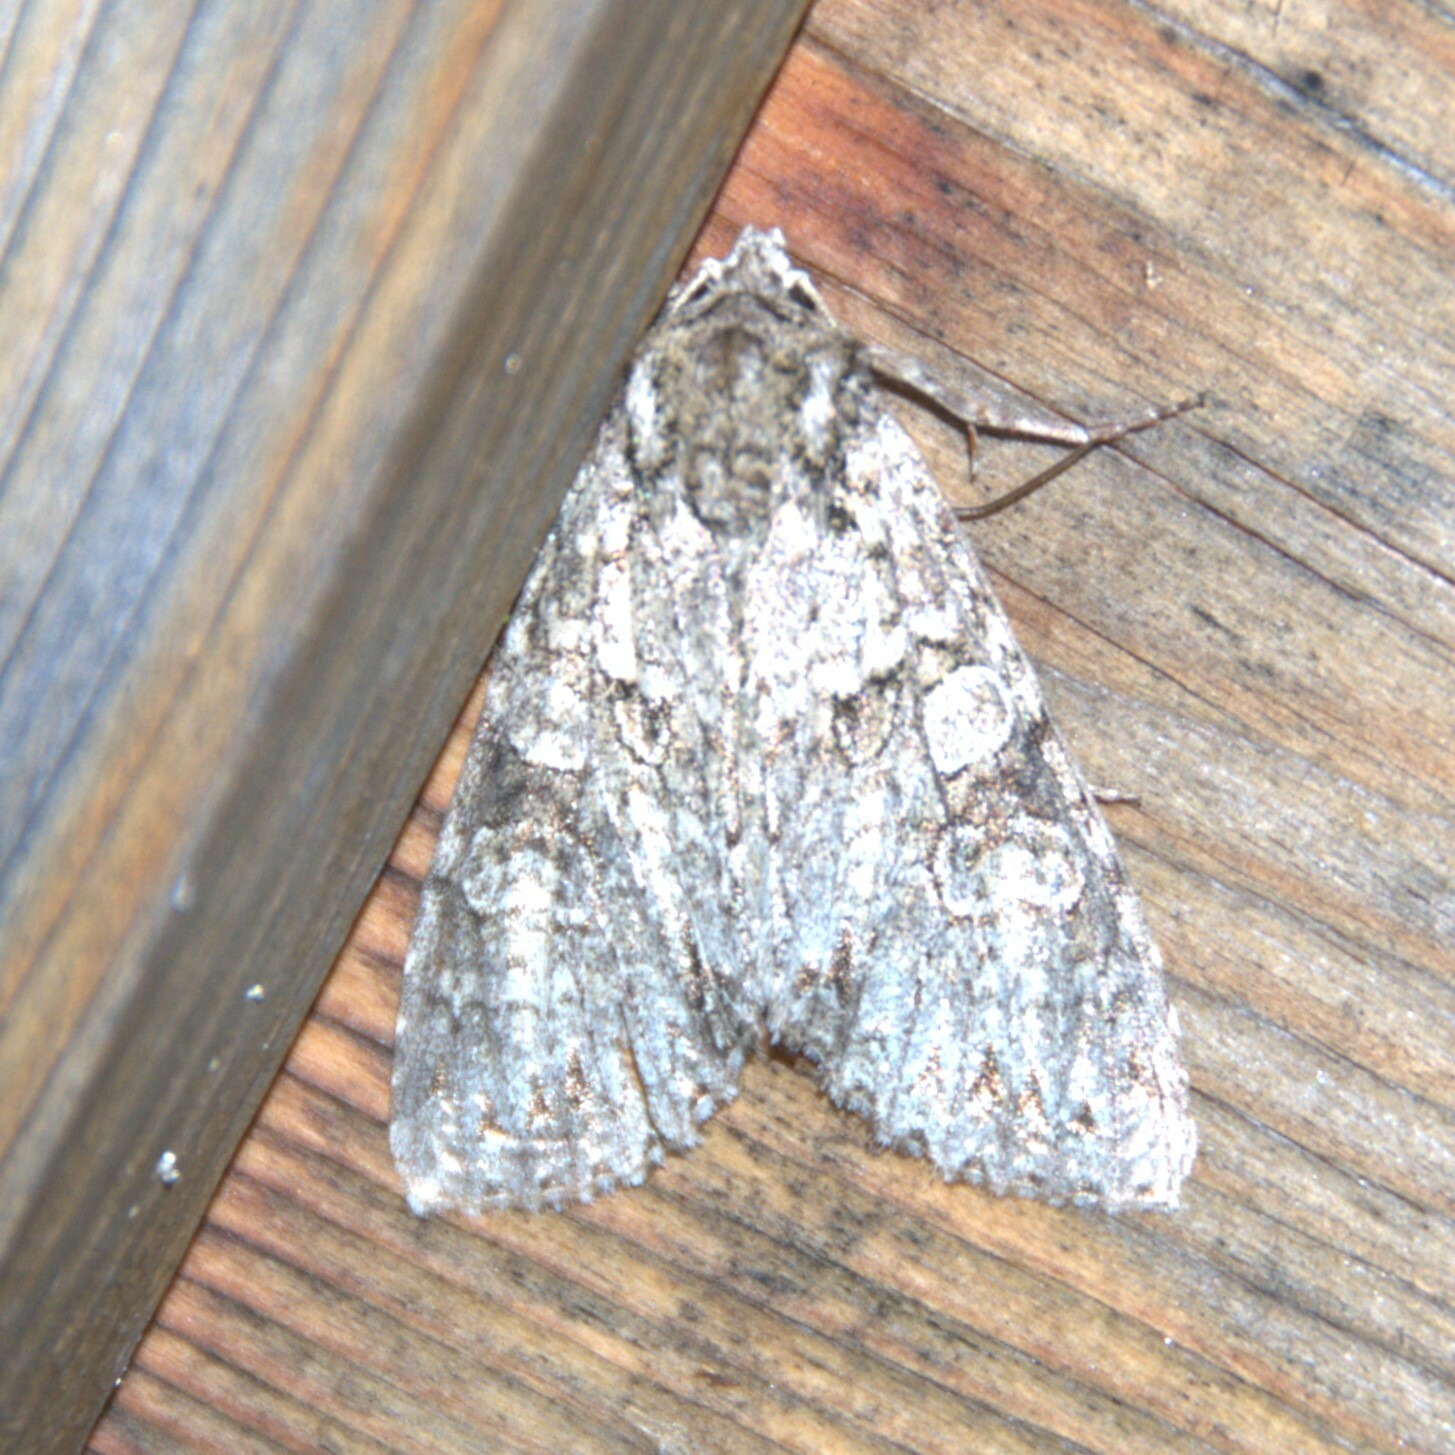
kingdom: Animalia
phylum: Arthropoda
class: Insecta
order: Lepidoptera
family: Noctuidae
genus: Polia
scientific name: Polia nebulosa
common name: Grey arches
